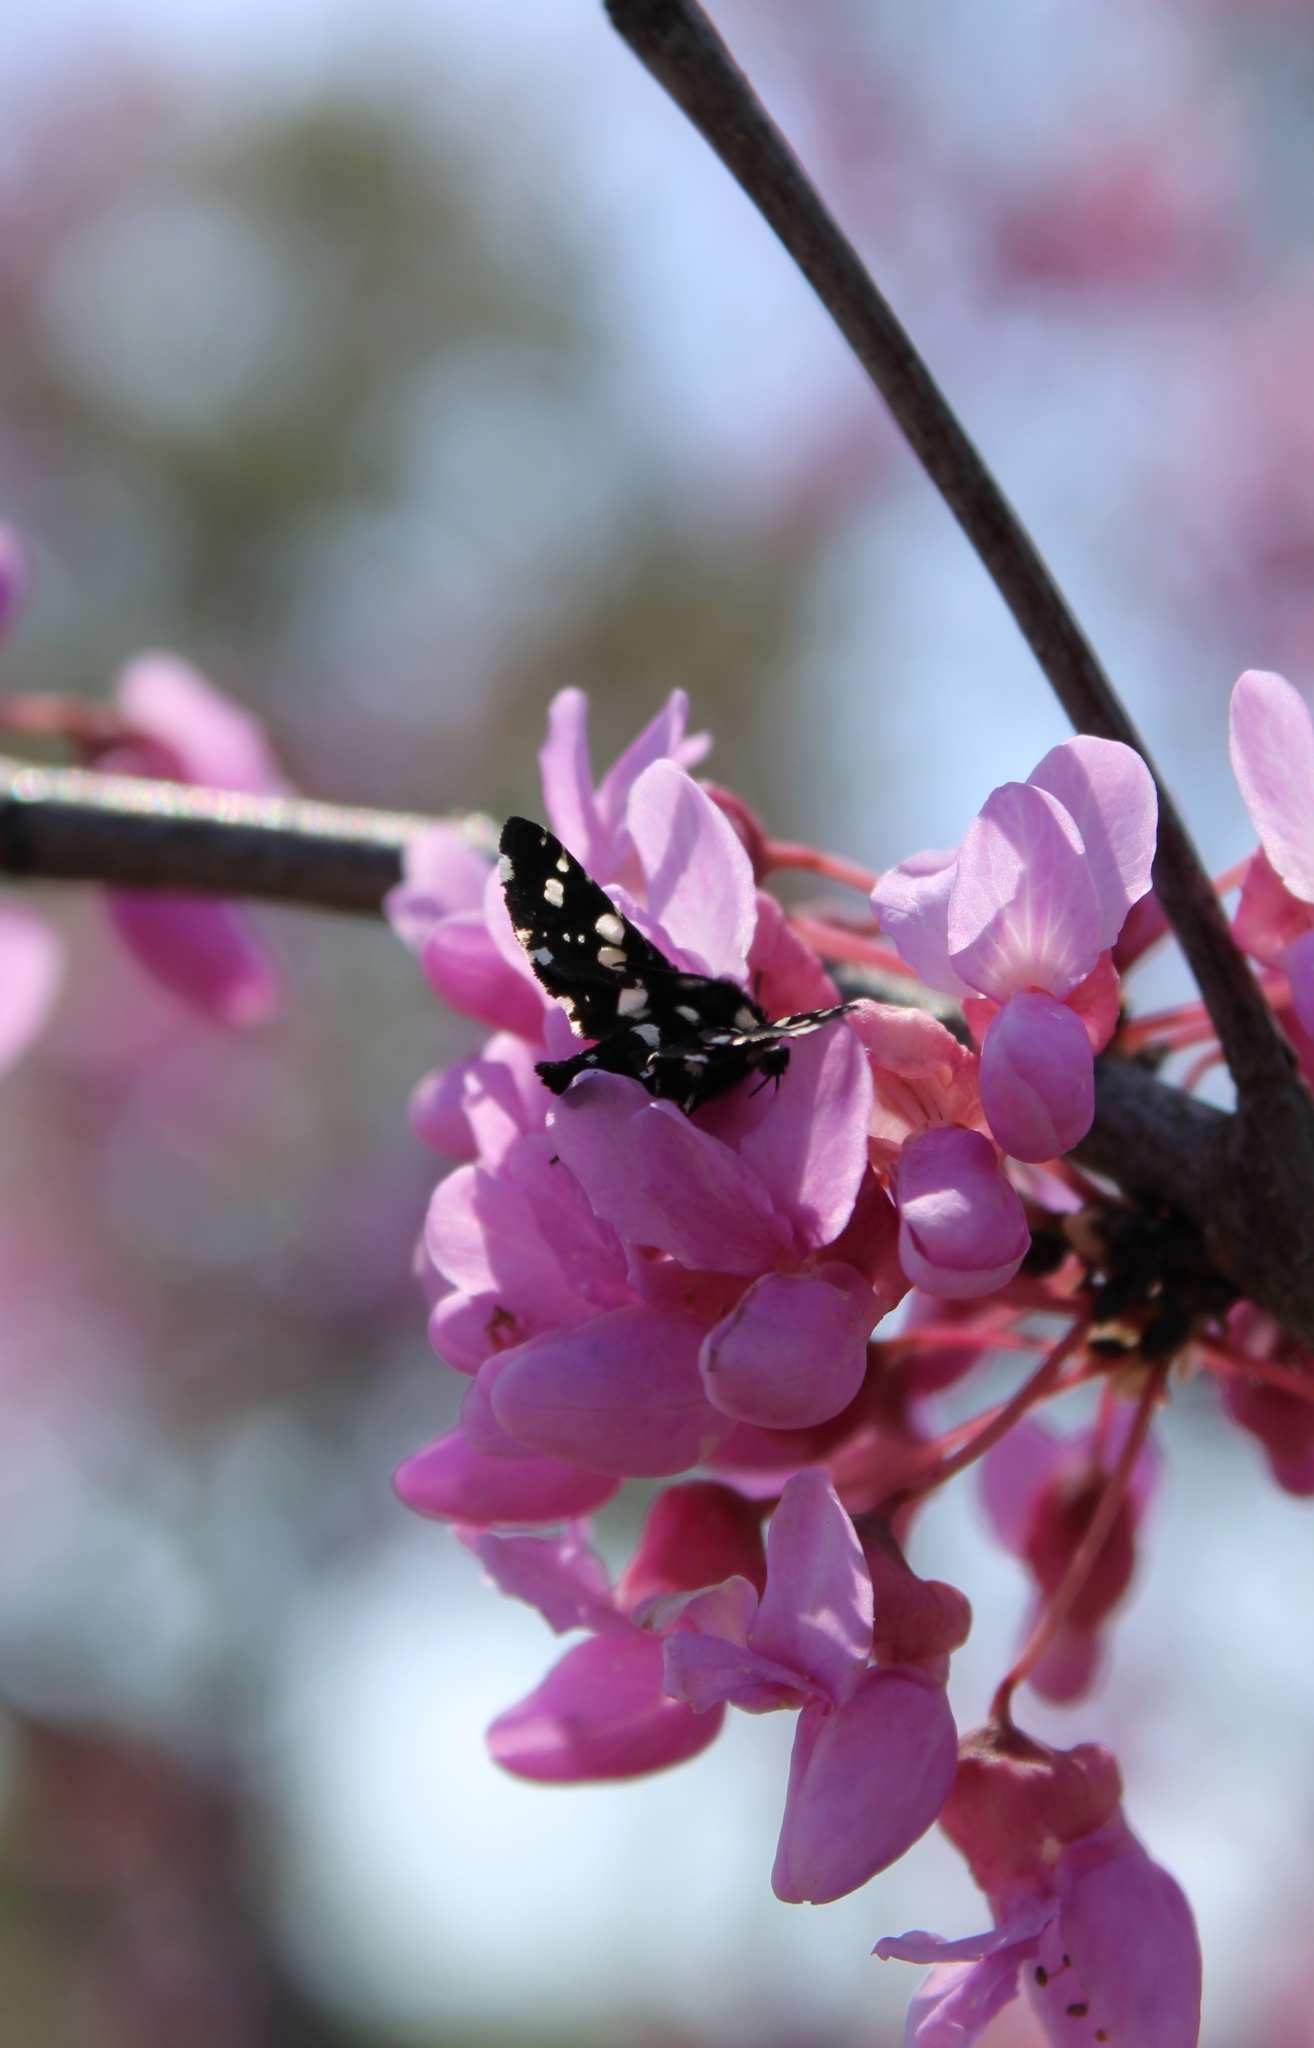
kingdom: Animalia
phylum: Arthropoda
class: Insecta
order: Lepidoptera
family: Thyrididae
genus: Pseudothyris
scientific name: Pseudothyris sepulchralis
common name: Mournful thyris moth
